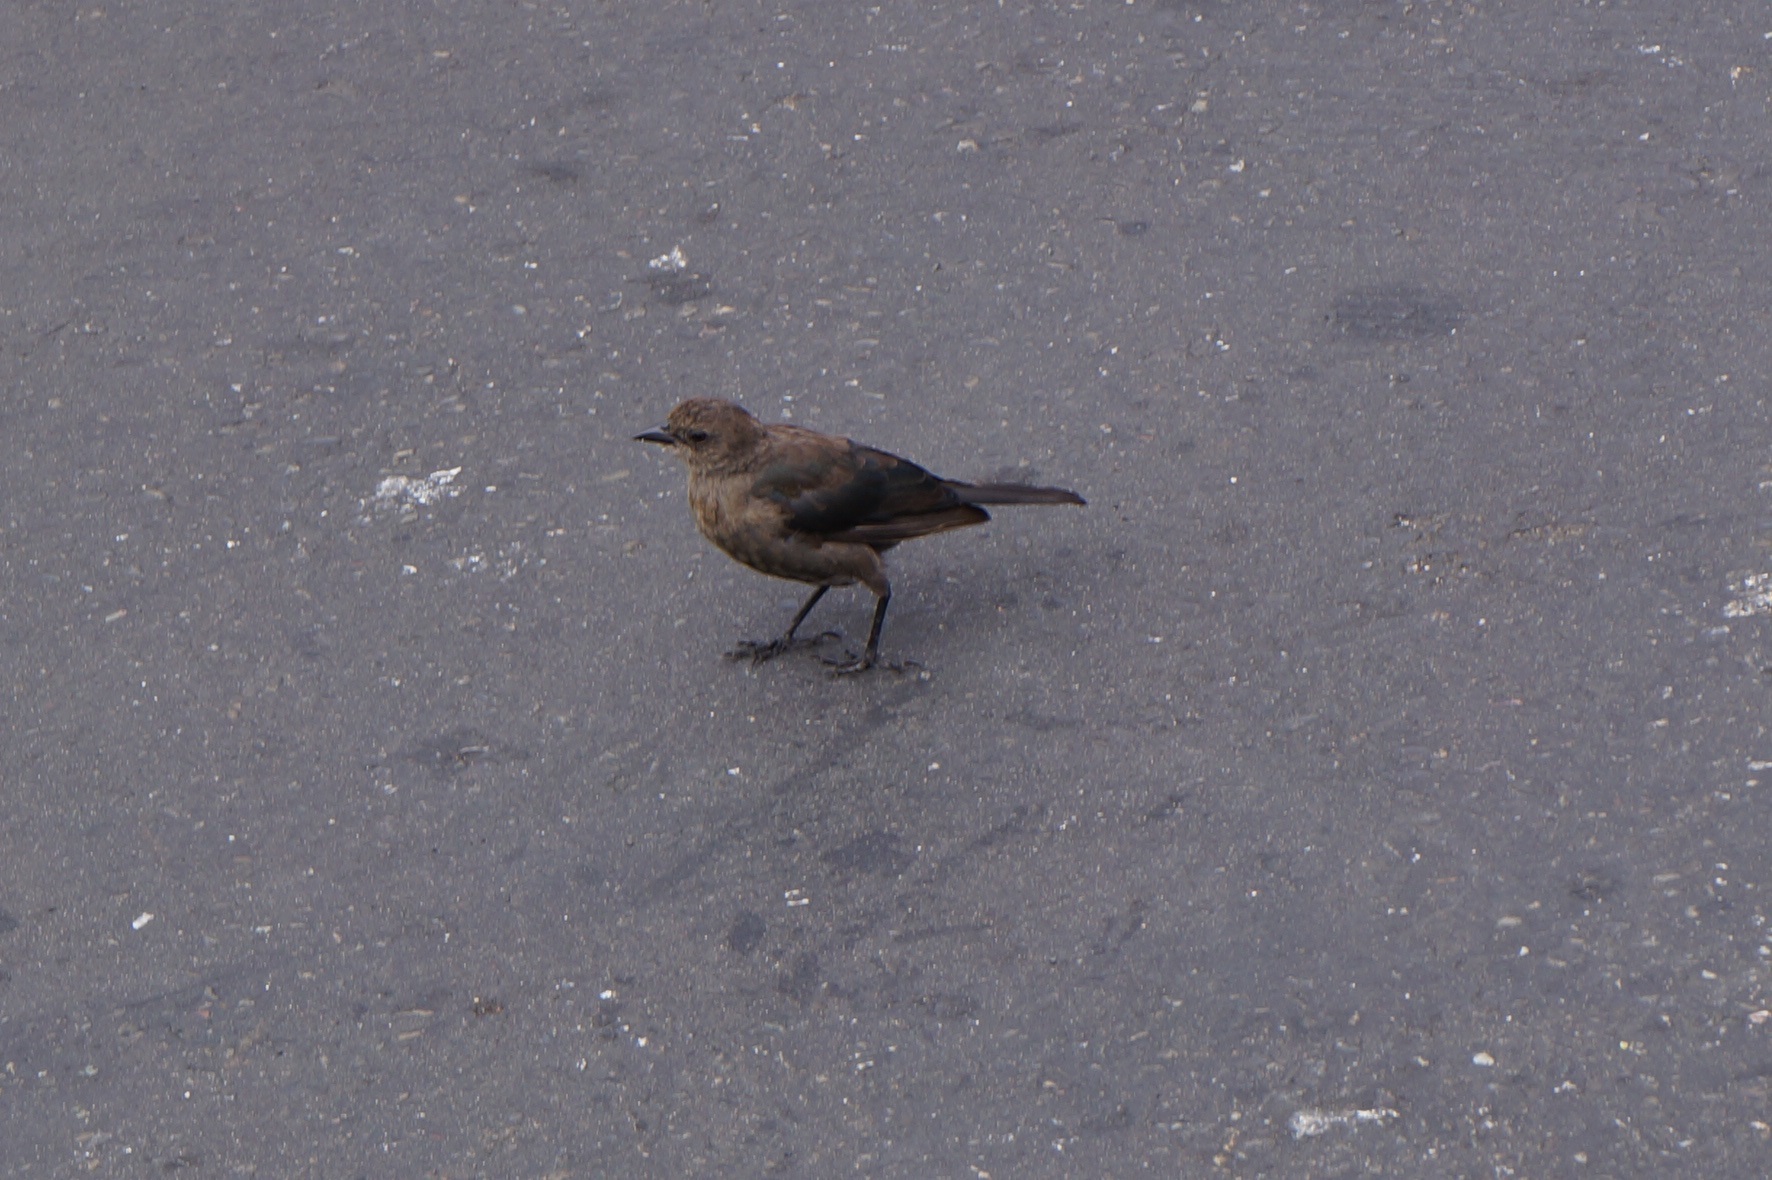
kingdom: Animalia
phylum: Chordata
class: Aves
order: Passeriformes
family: Icteridae
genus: Euphagus
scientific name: Euphagus cyanocephalus
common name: Brewer's blackbird
